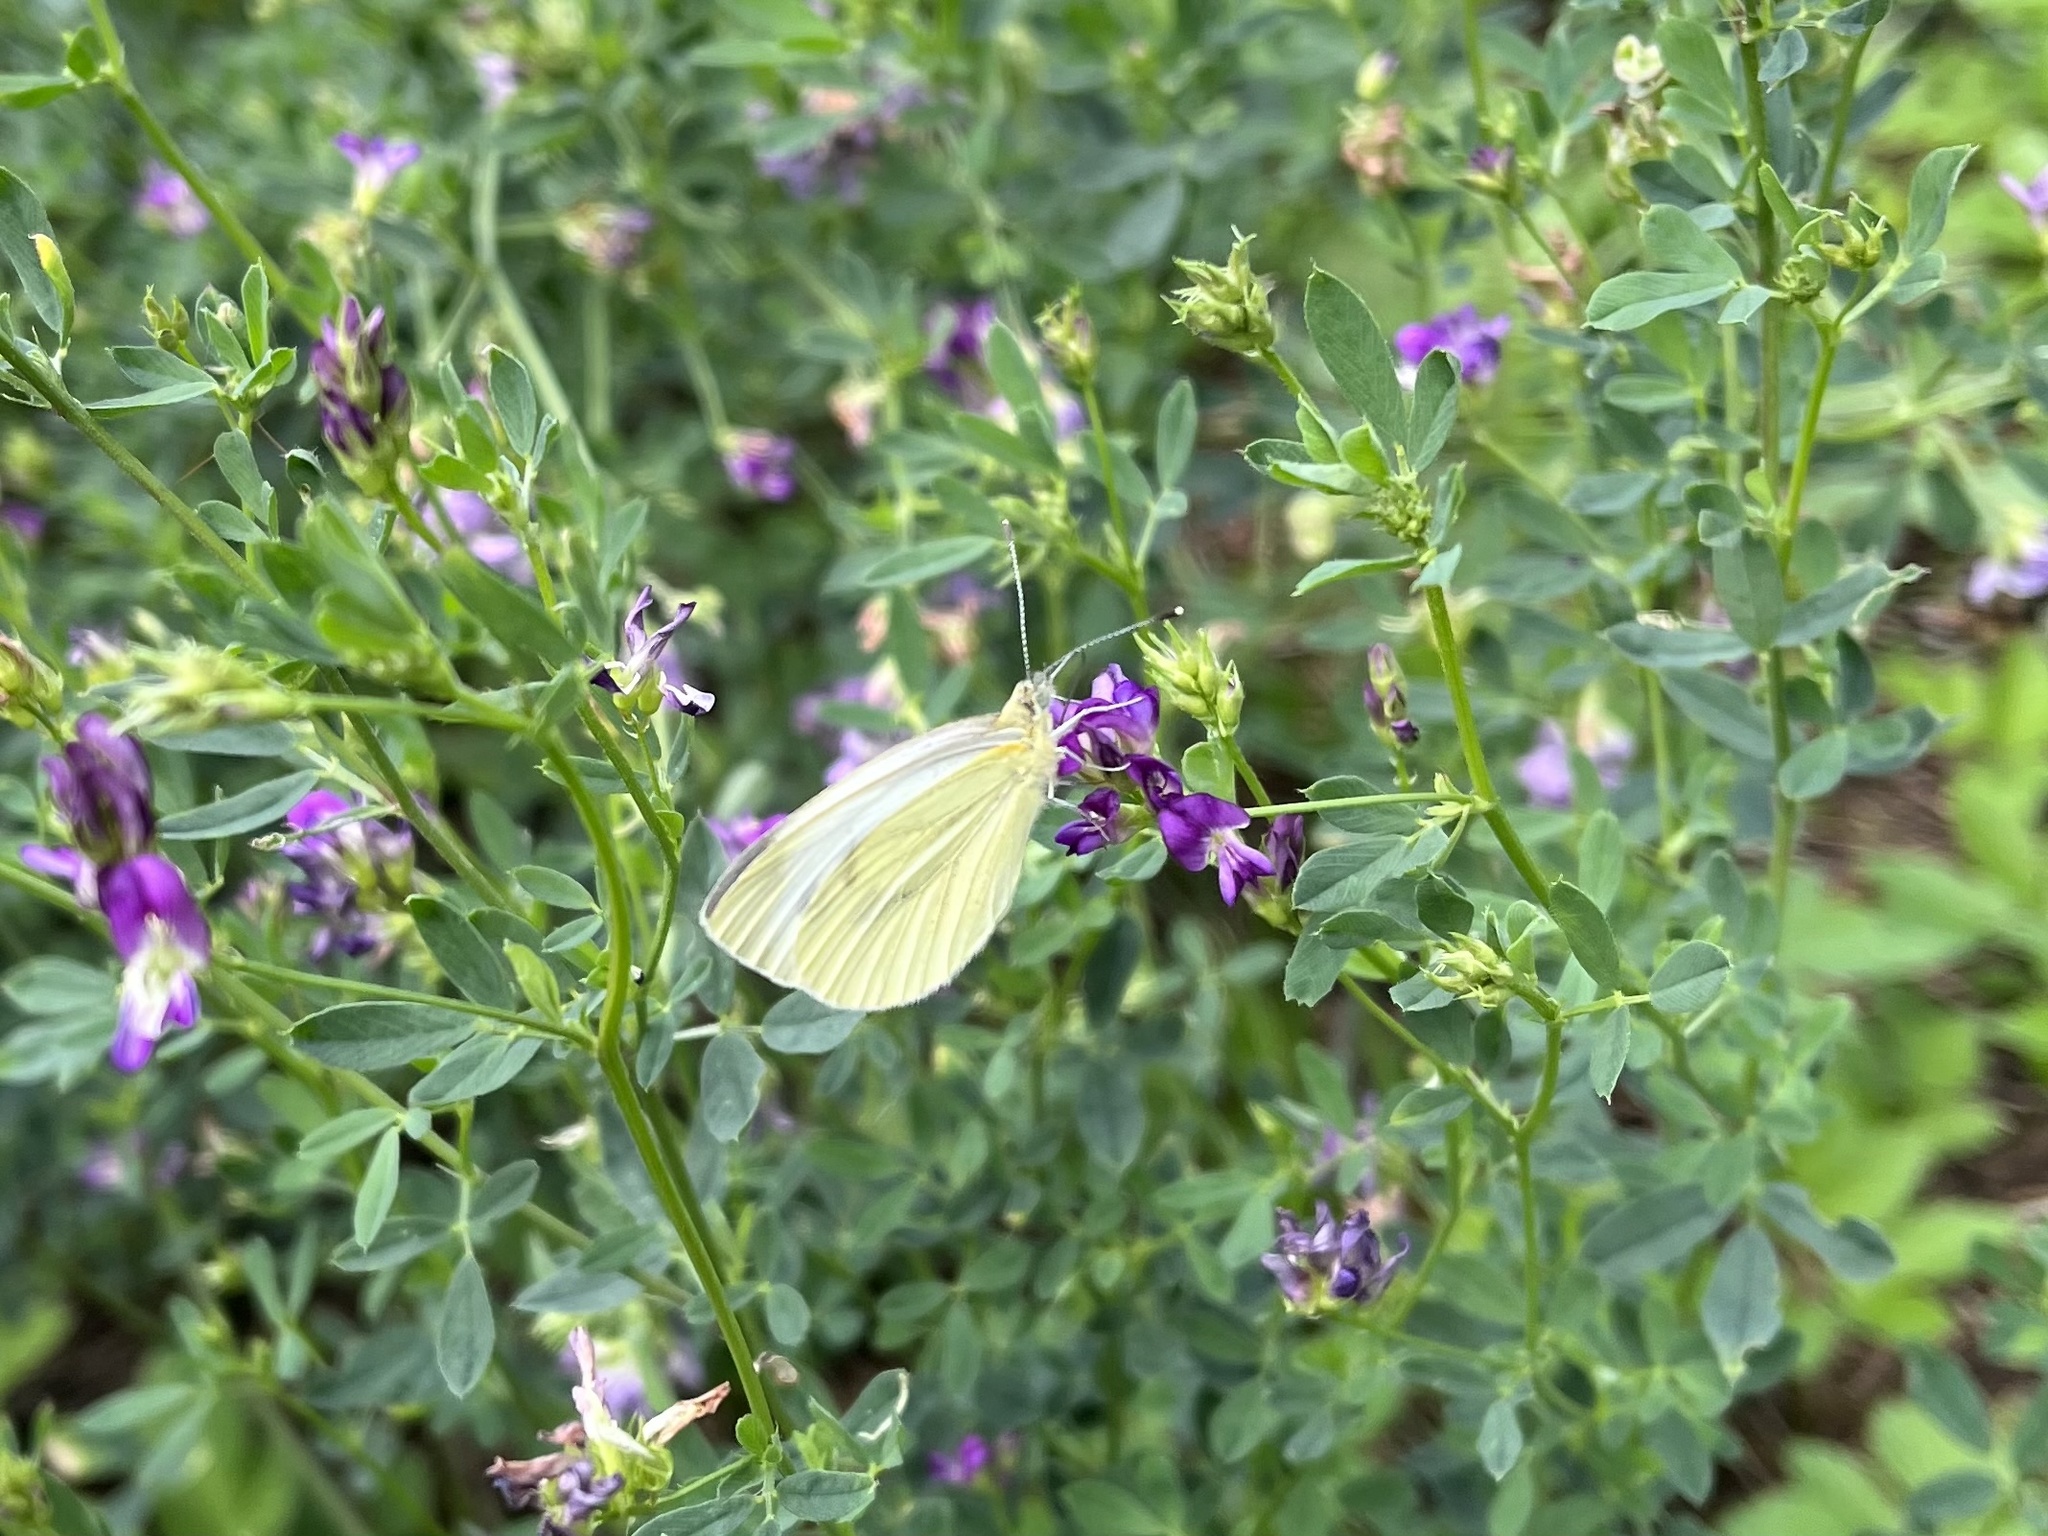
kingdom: Animalia
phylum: Arthropoda
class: Insecta
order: Lepidoptera
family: Pieridae
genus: Pieris
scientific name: Pieris rapae
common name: Small white
